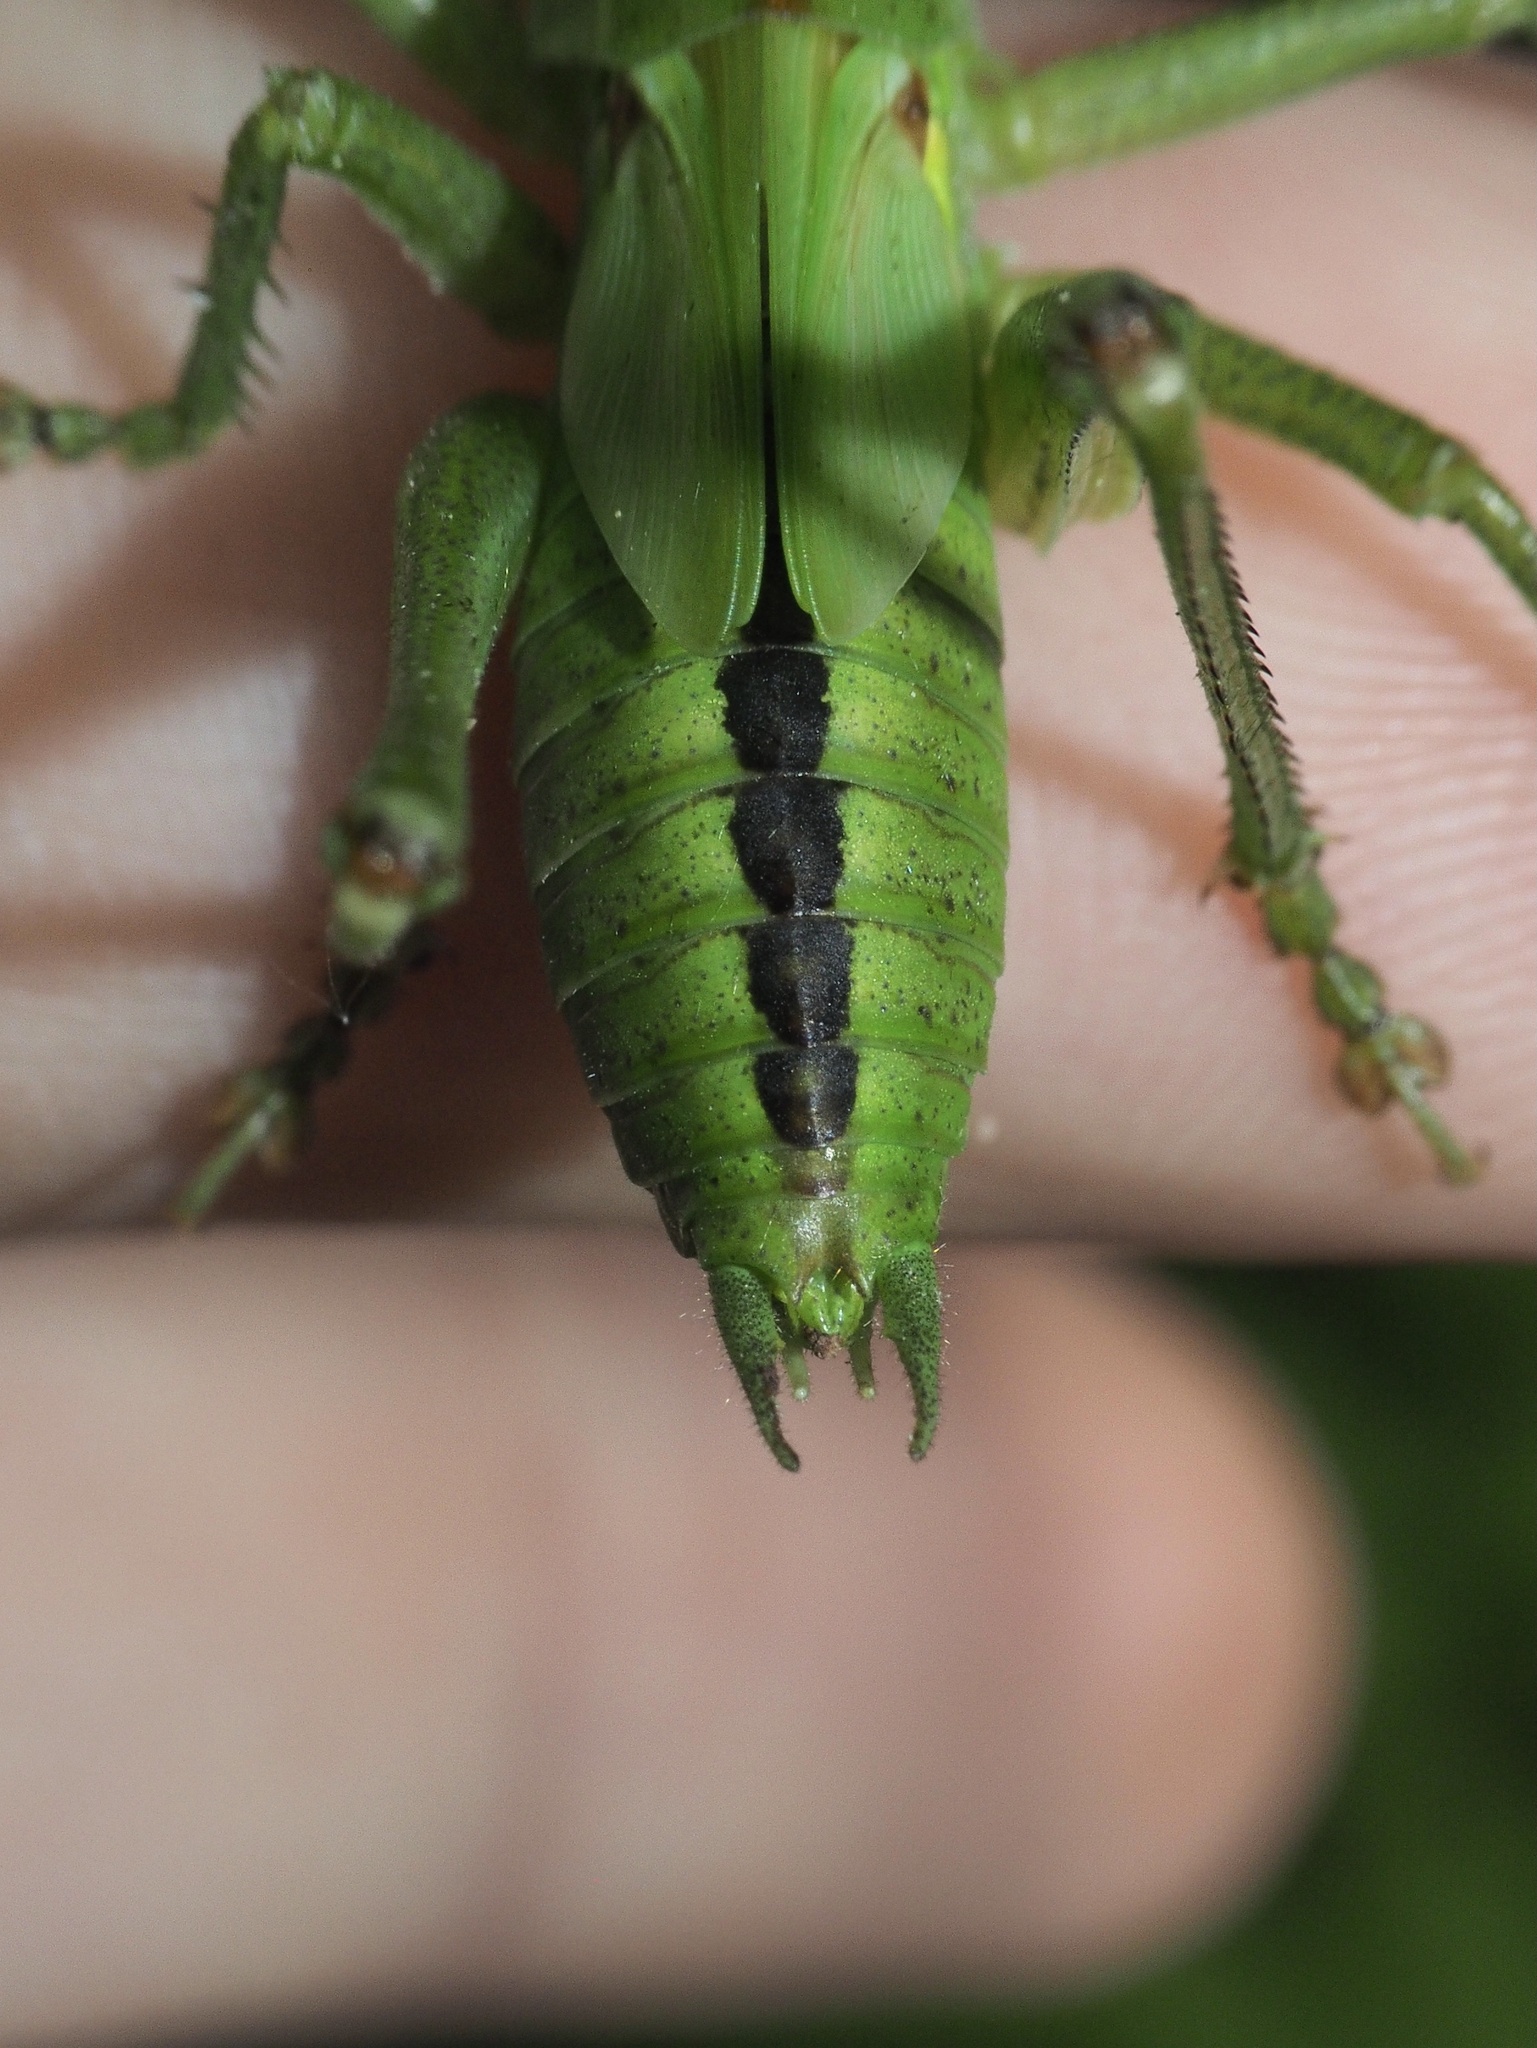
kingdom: Animalia
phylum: Arthropoda
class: Insecta
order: Orthoptera
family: Tettigoniidae
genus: Tettigonia
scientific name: Tettigonia viridissima
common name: Great green bush-cricket
